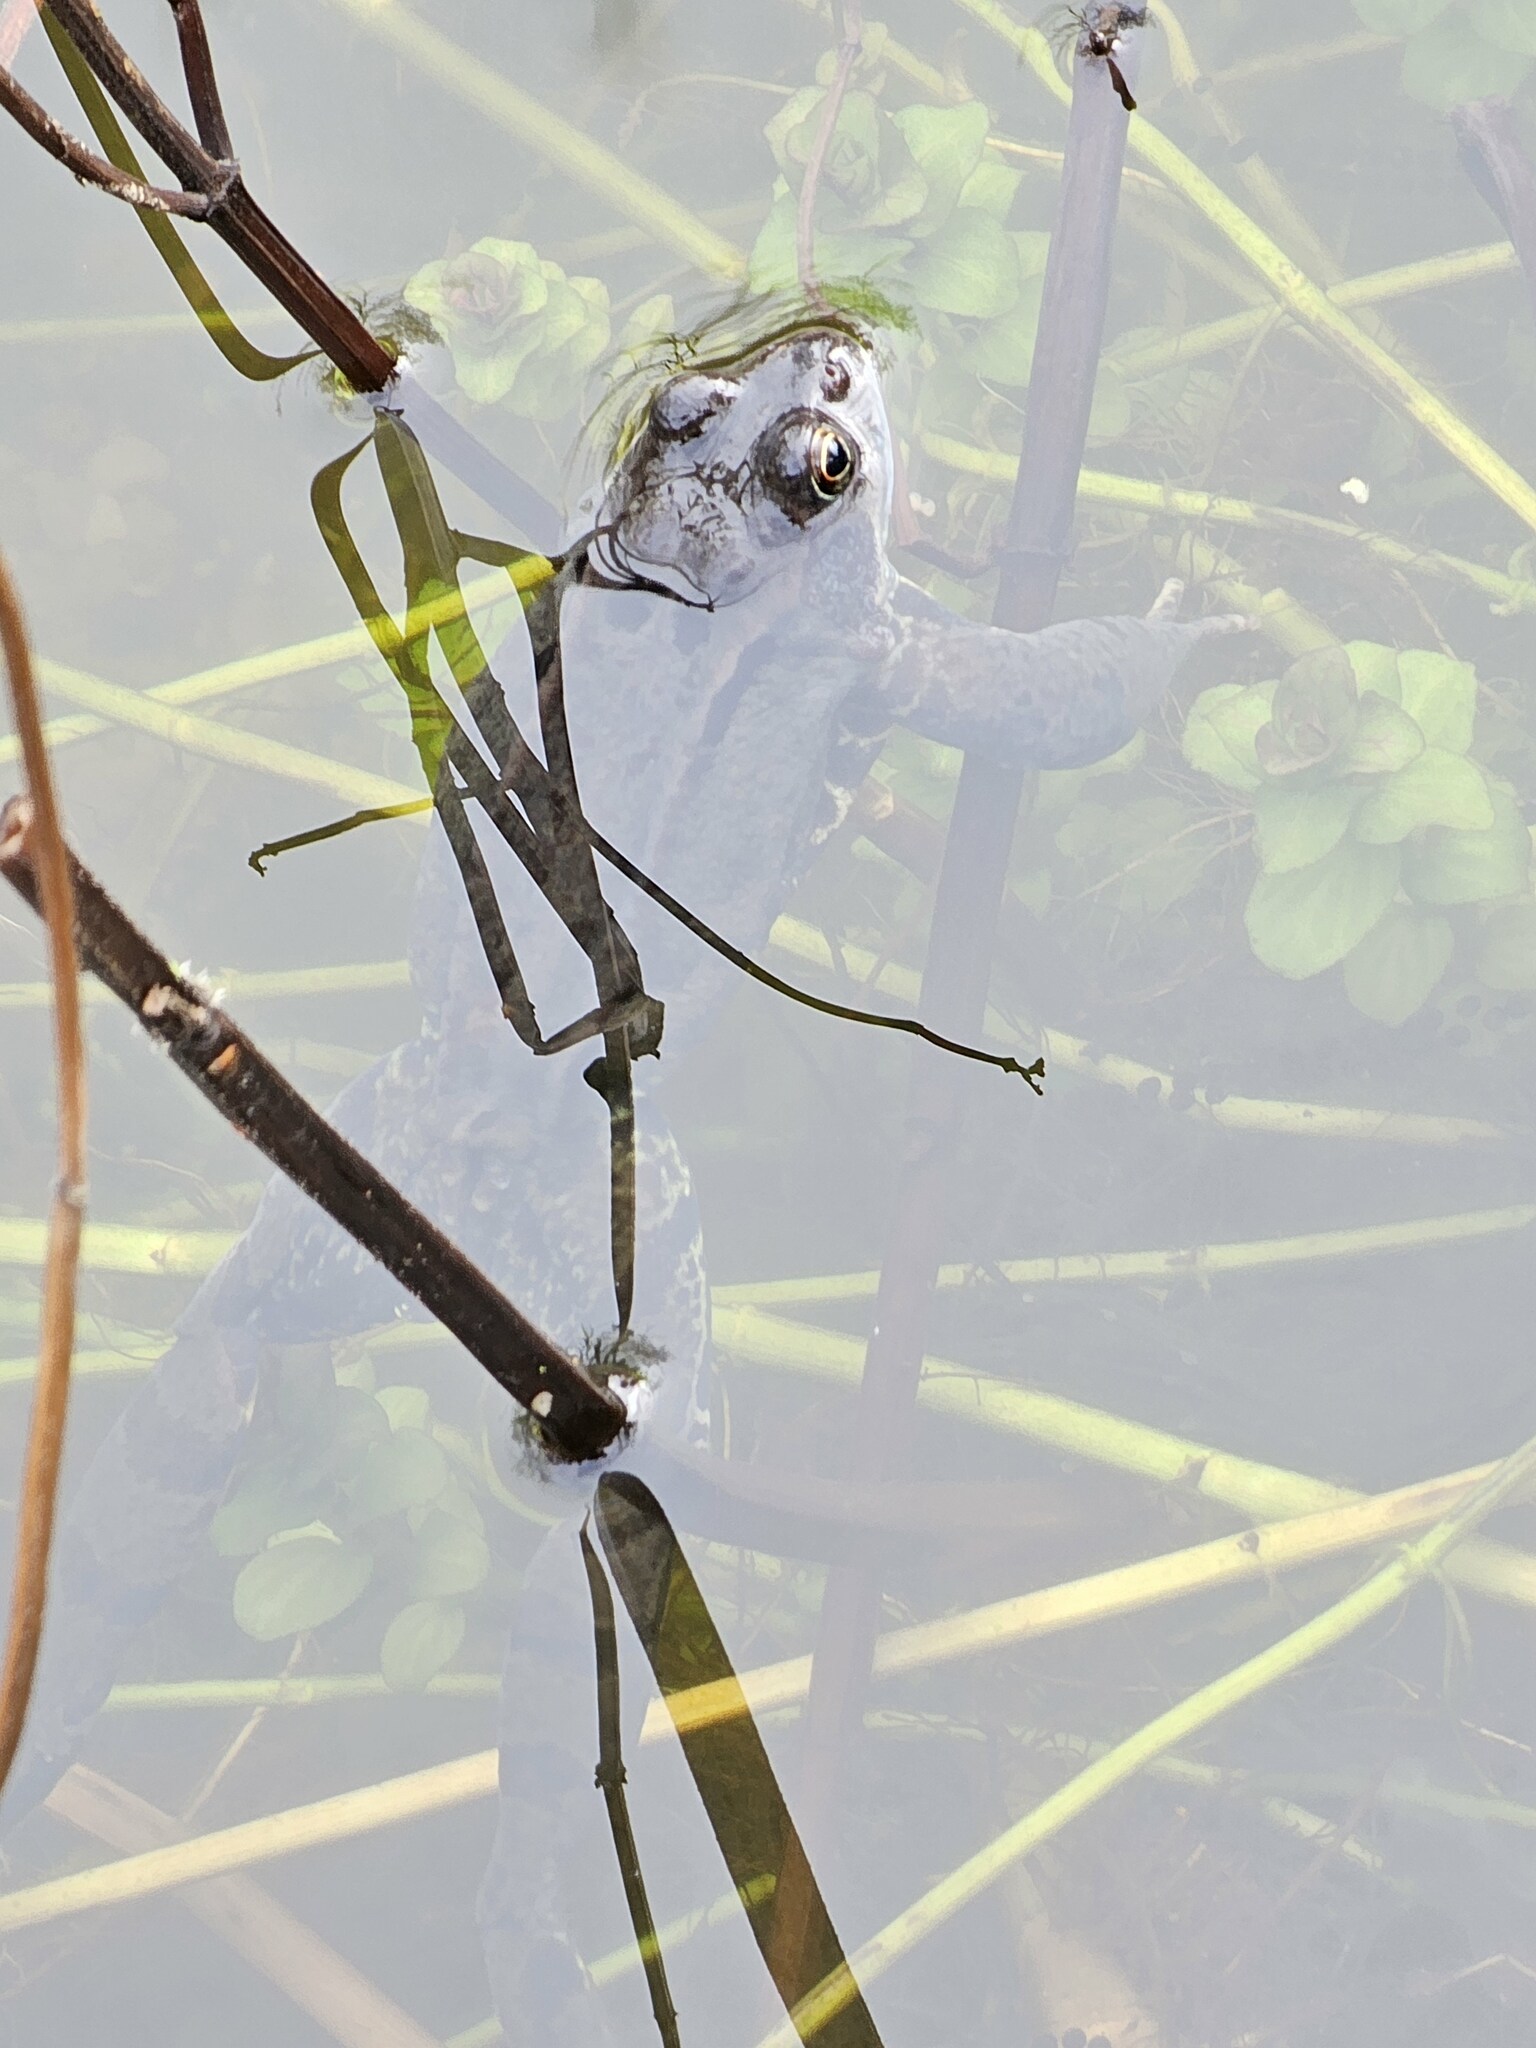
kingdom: Animalia
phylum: Chordata
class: Amphibia
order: Anura
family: Ranidae
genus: Rana
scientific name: Rana temporaria
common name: Common frog
